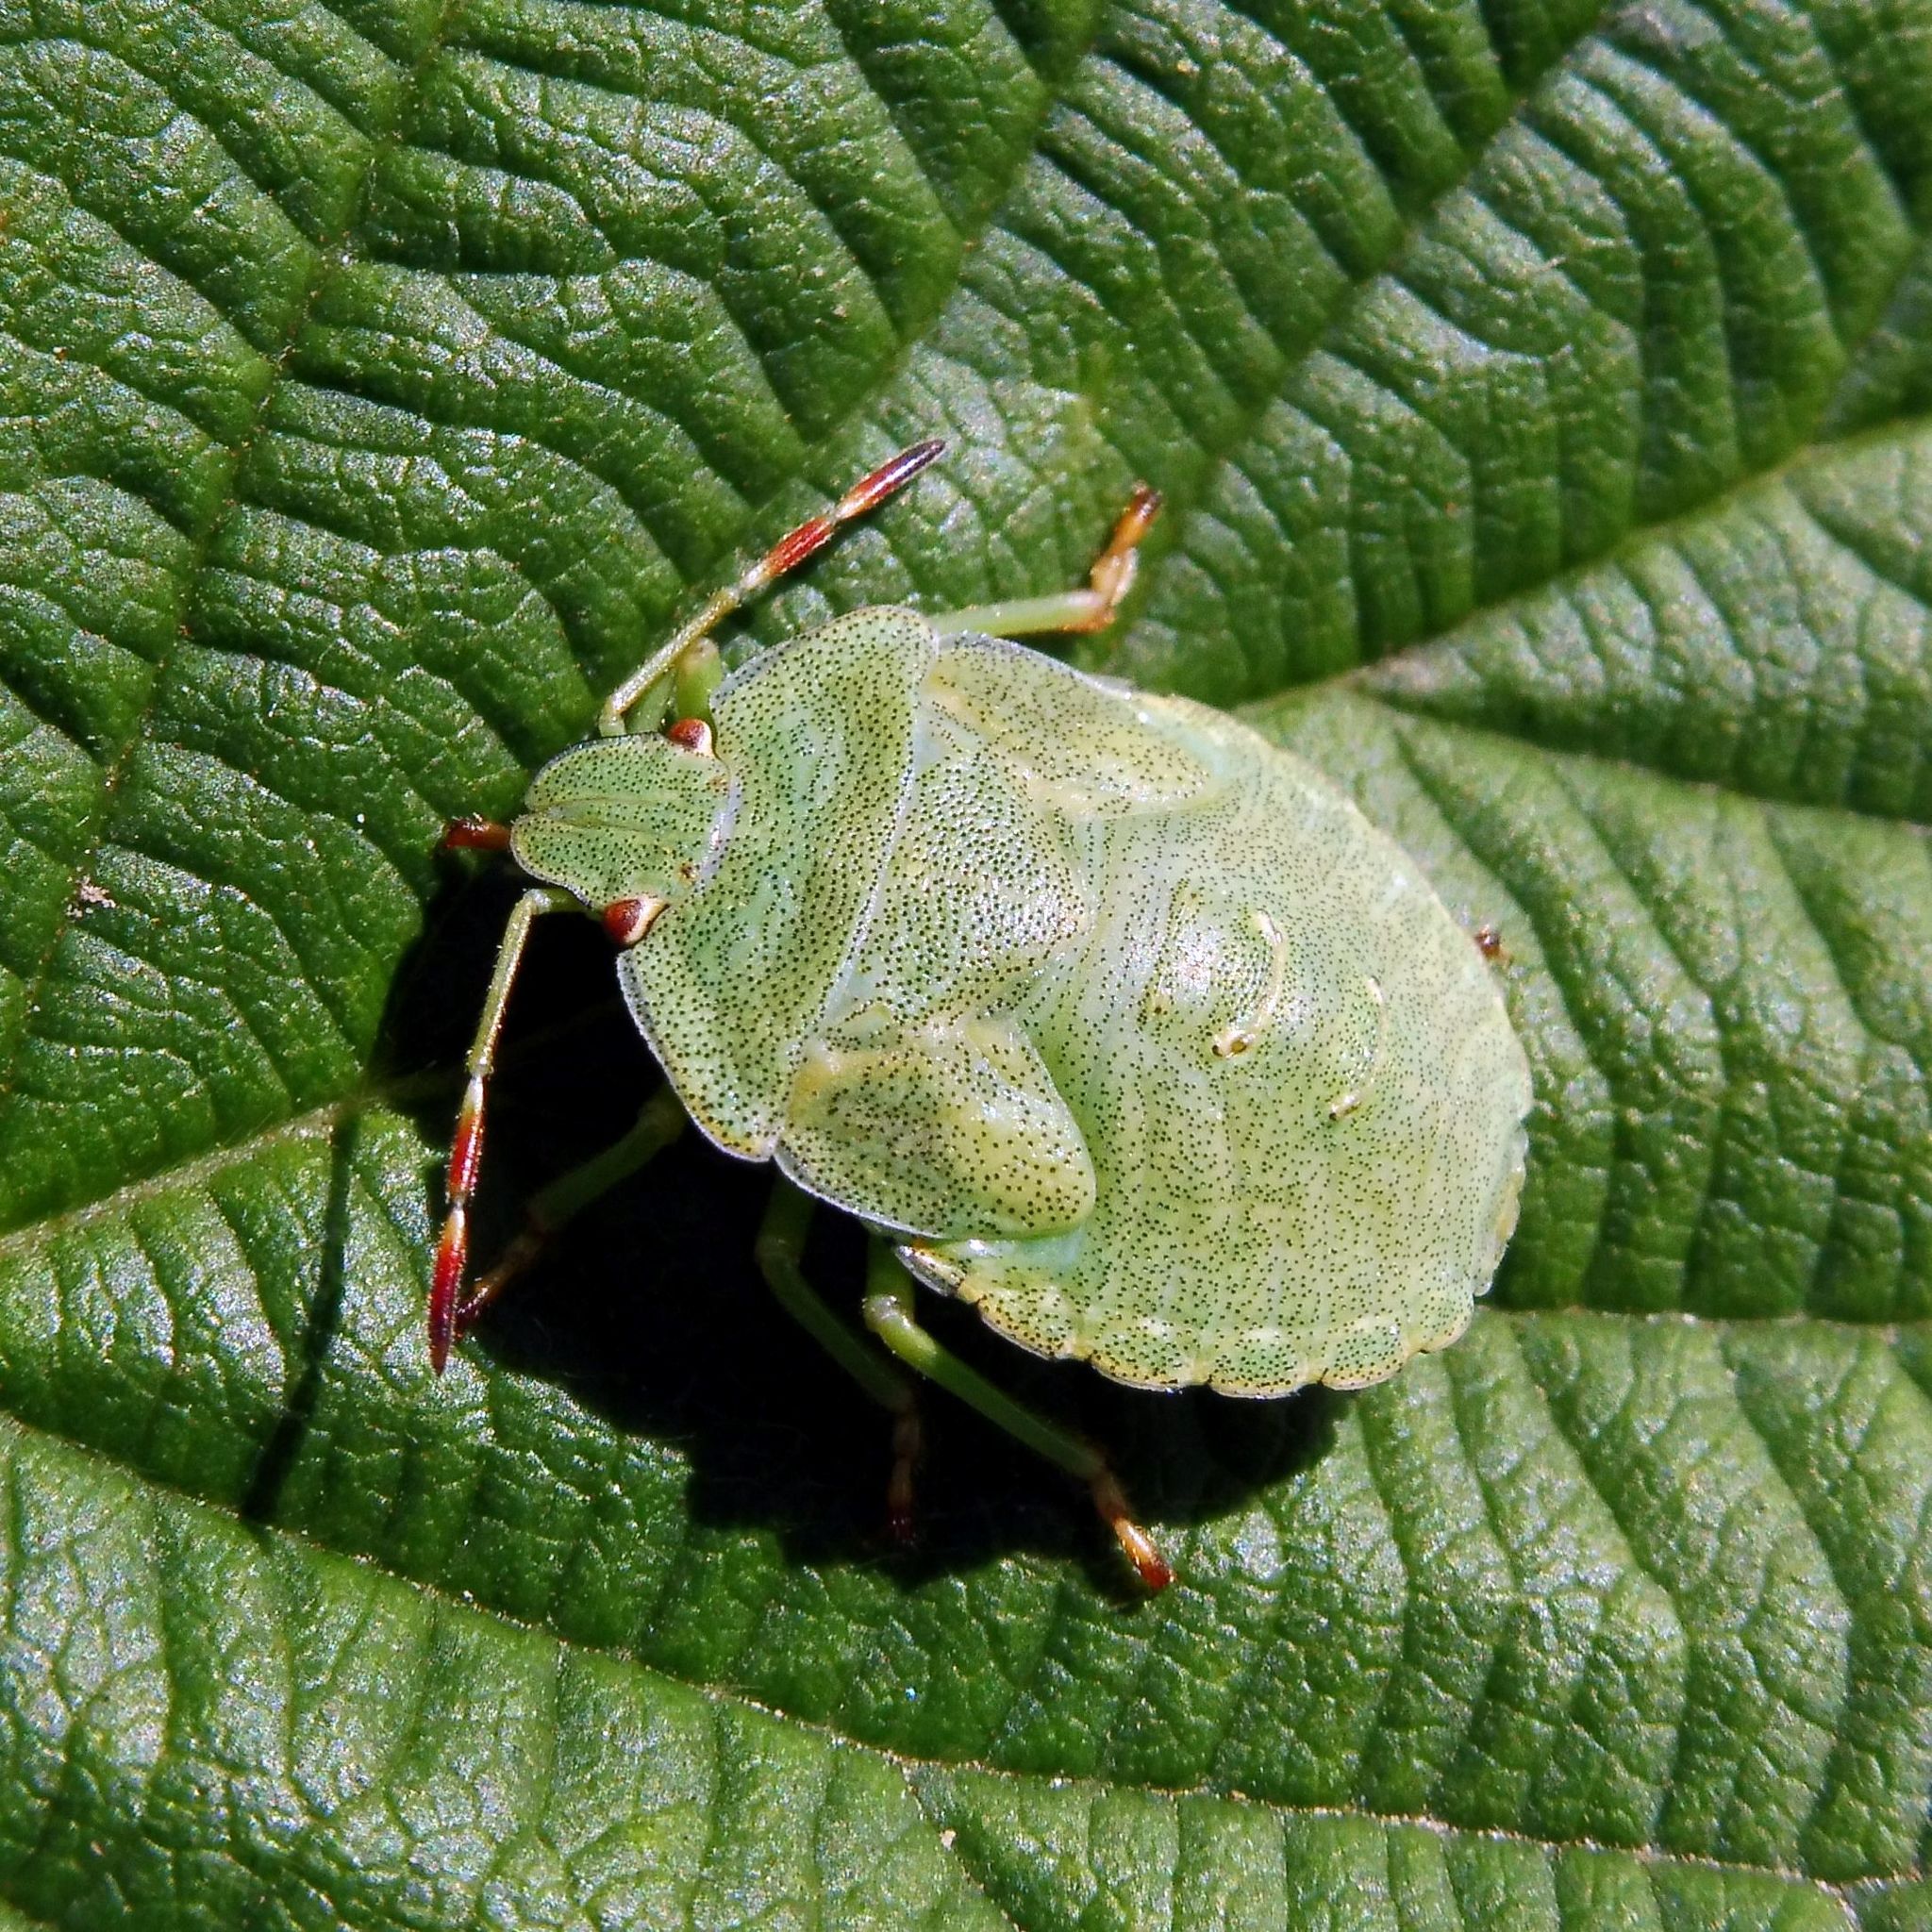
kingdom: Animalia
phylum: Arthropoda
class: Insecta
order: Hemiptera
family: Pentatomidae
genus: Palomena
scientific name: Palomena prasina
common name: Green shieldbug
